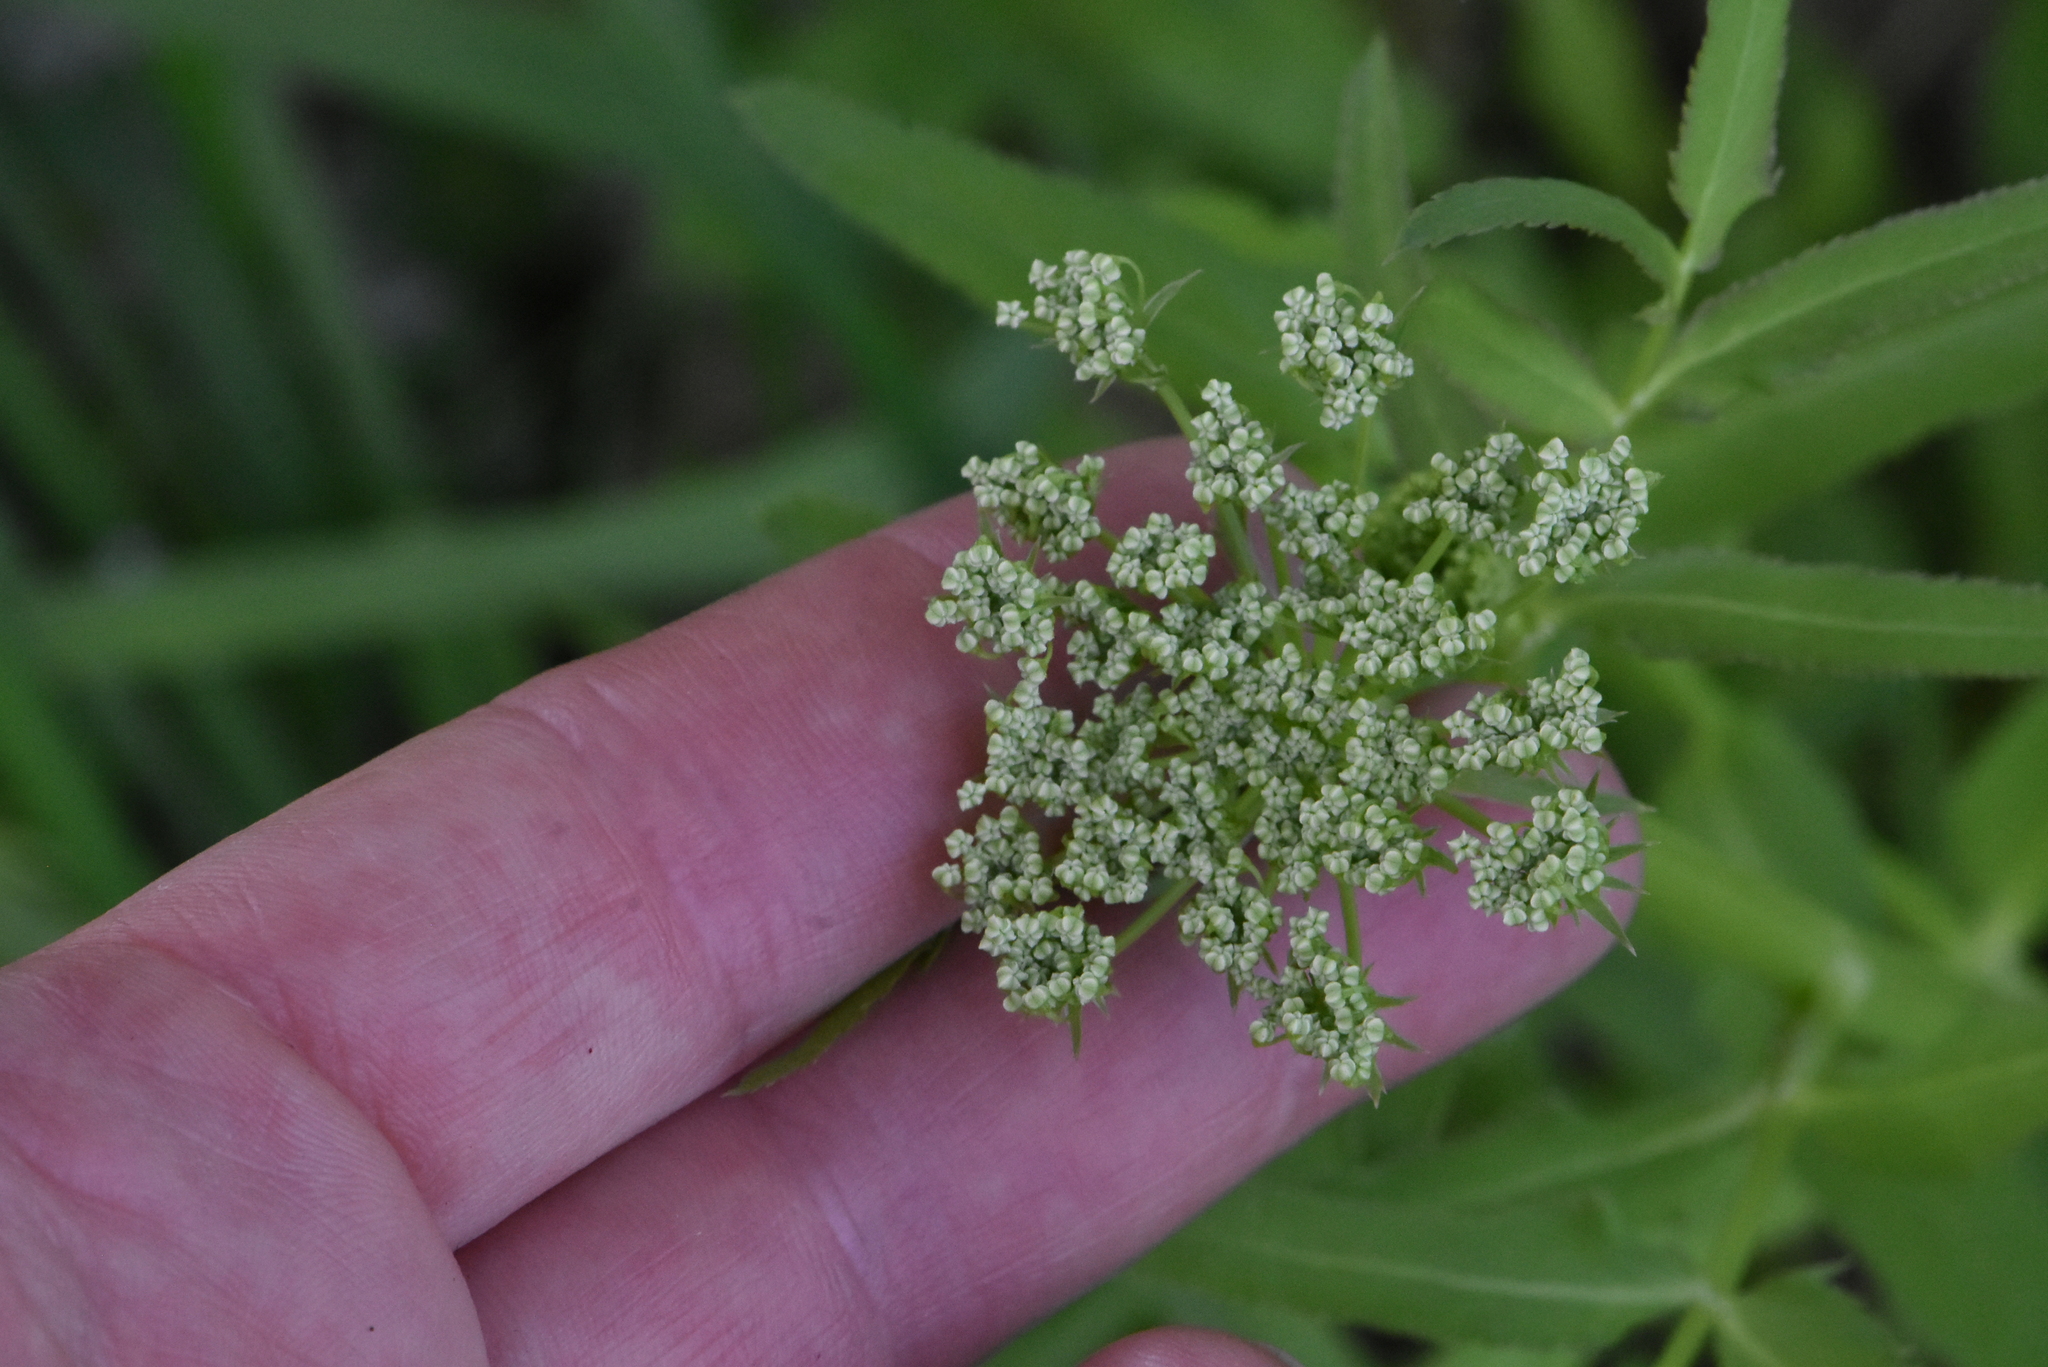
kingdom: Plantae
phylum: Tracheophyta
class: Magnoliopsida
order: Apiales
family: Apiaceae
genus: Sium
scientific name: Sium latifolium
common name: Greater water-parsnip
